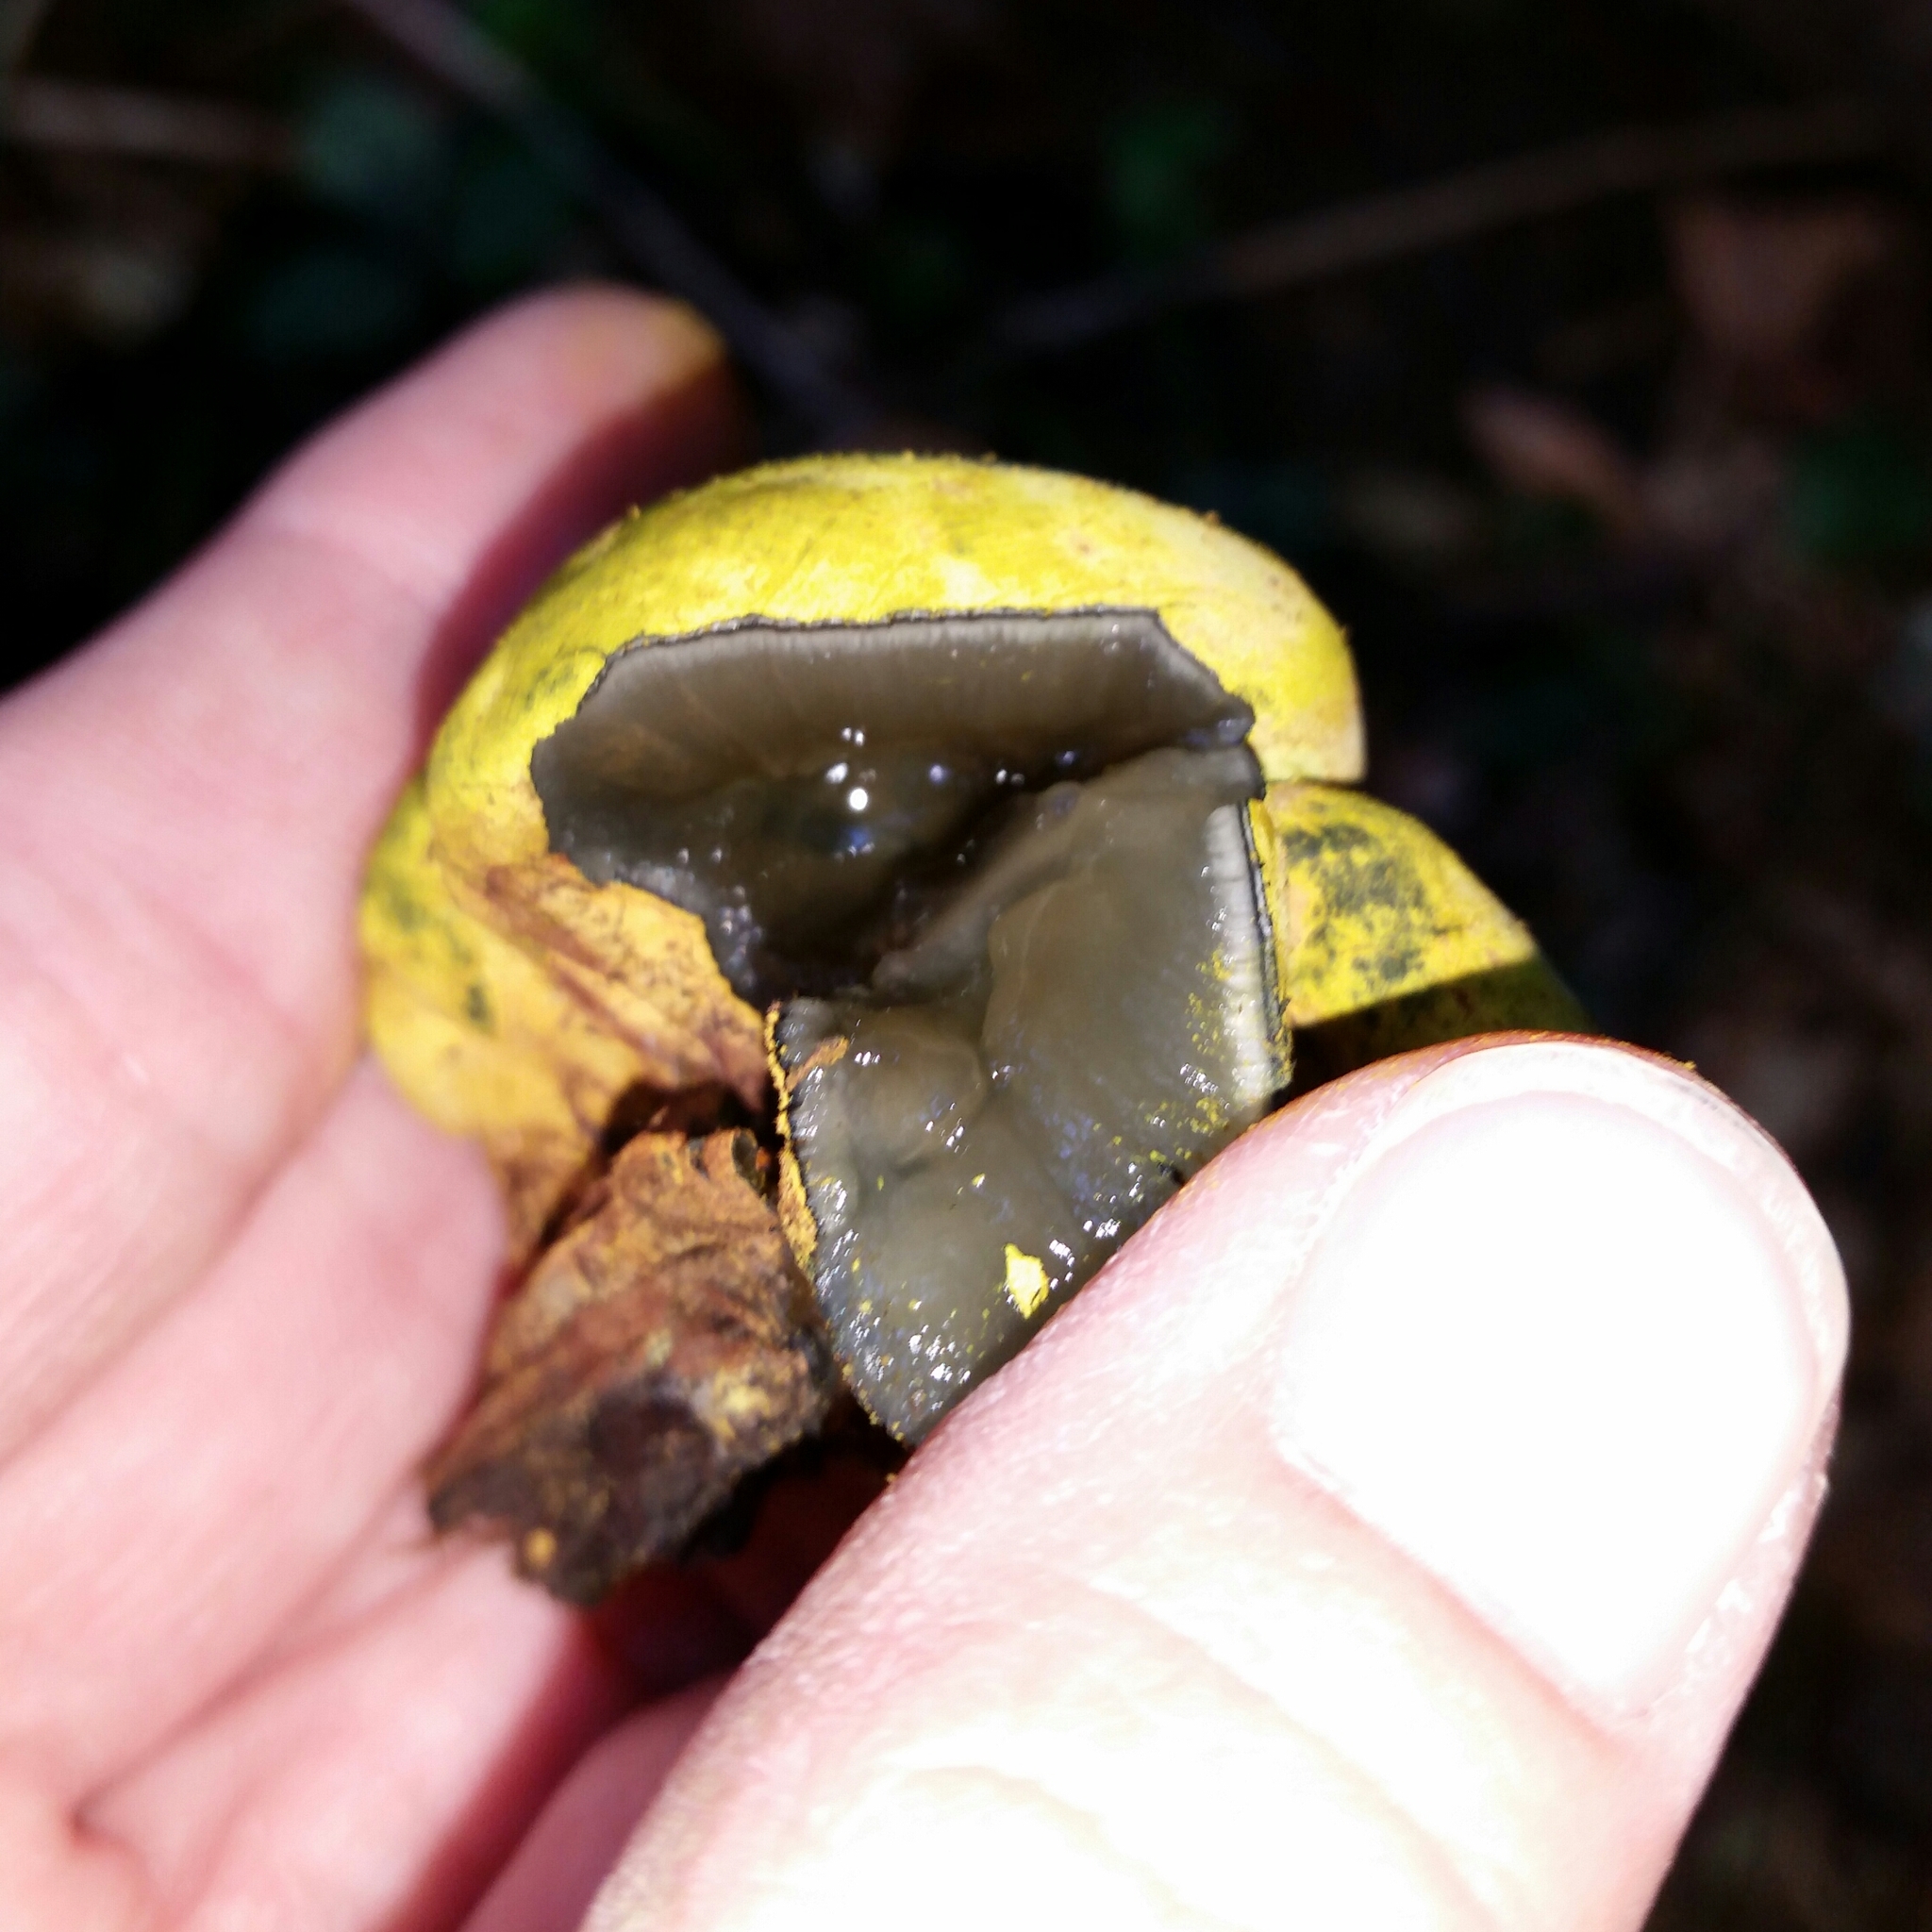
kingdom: Fungi
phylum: Ascomycota
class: Sordariomycetes
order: Xylariales
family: Hypoxylaceae
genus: Entonaema
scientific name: Entonaema liquescens
